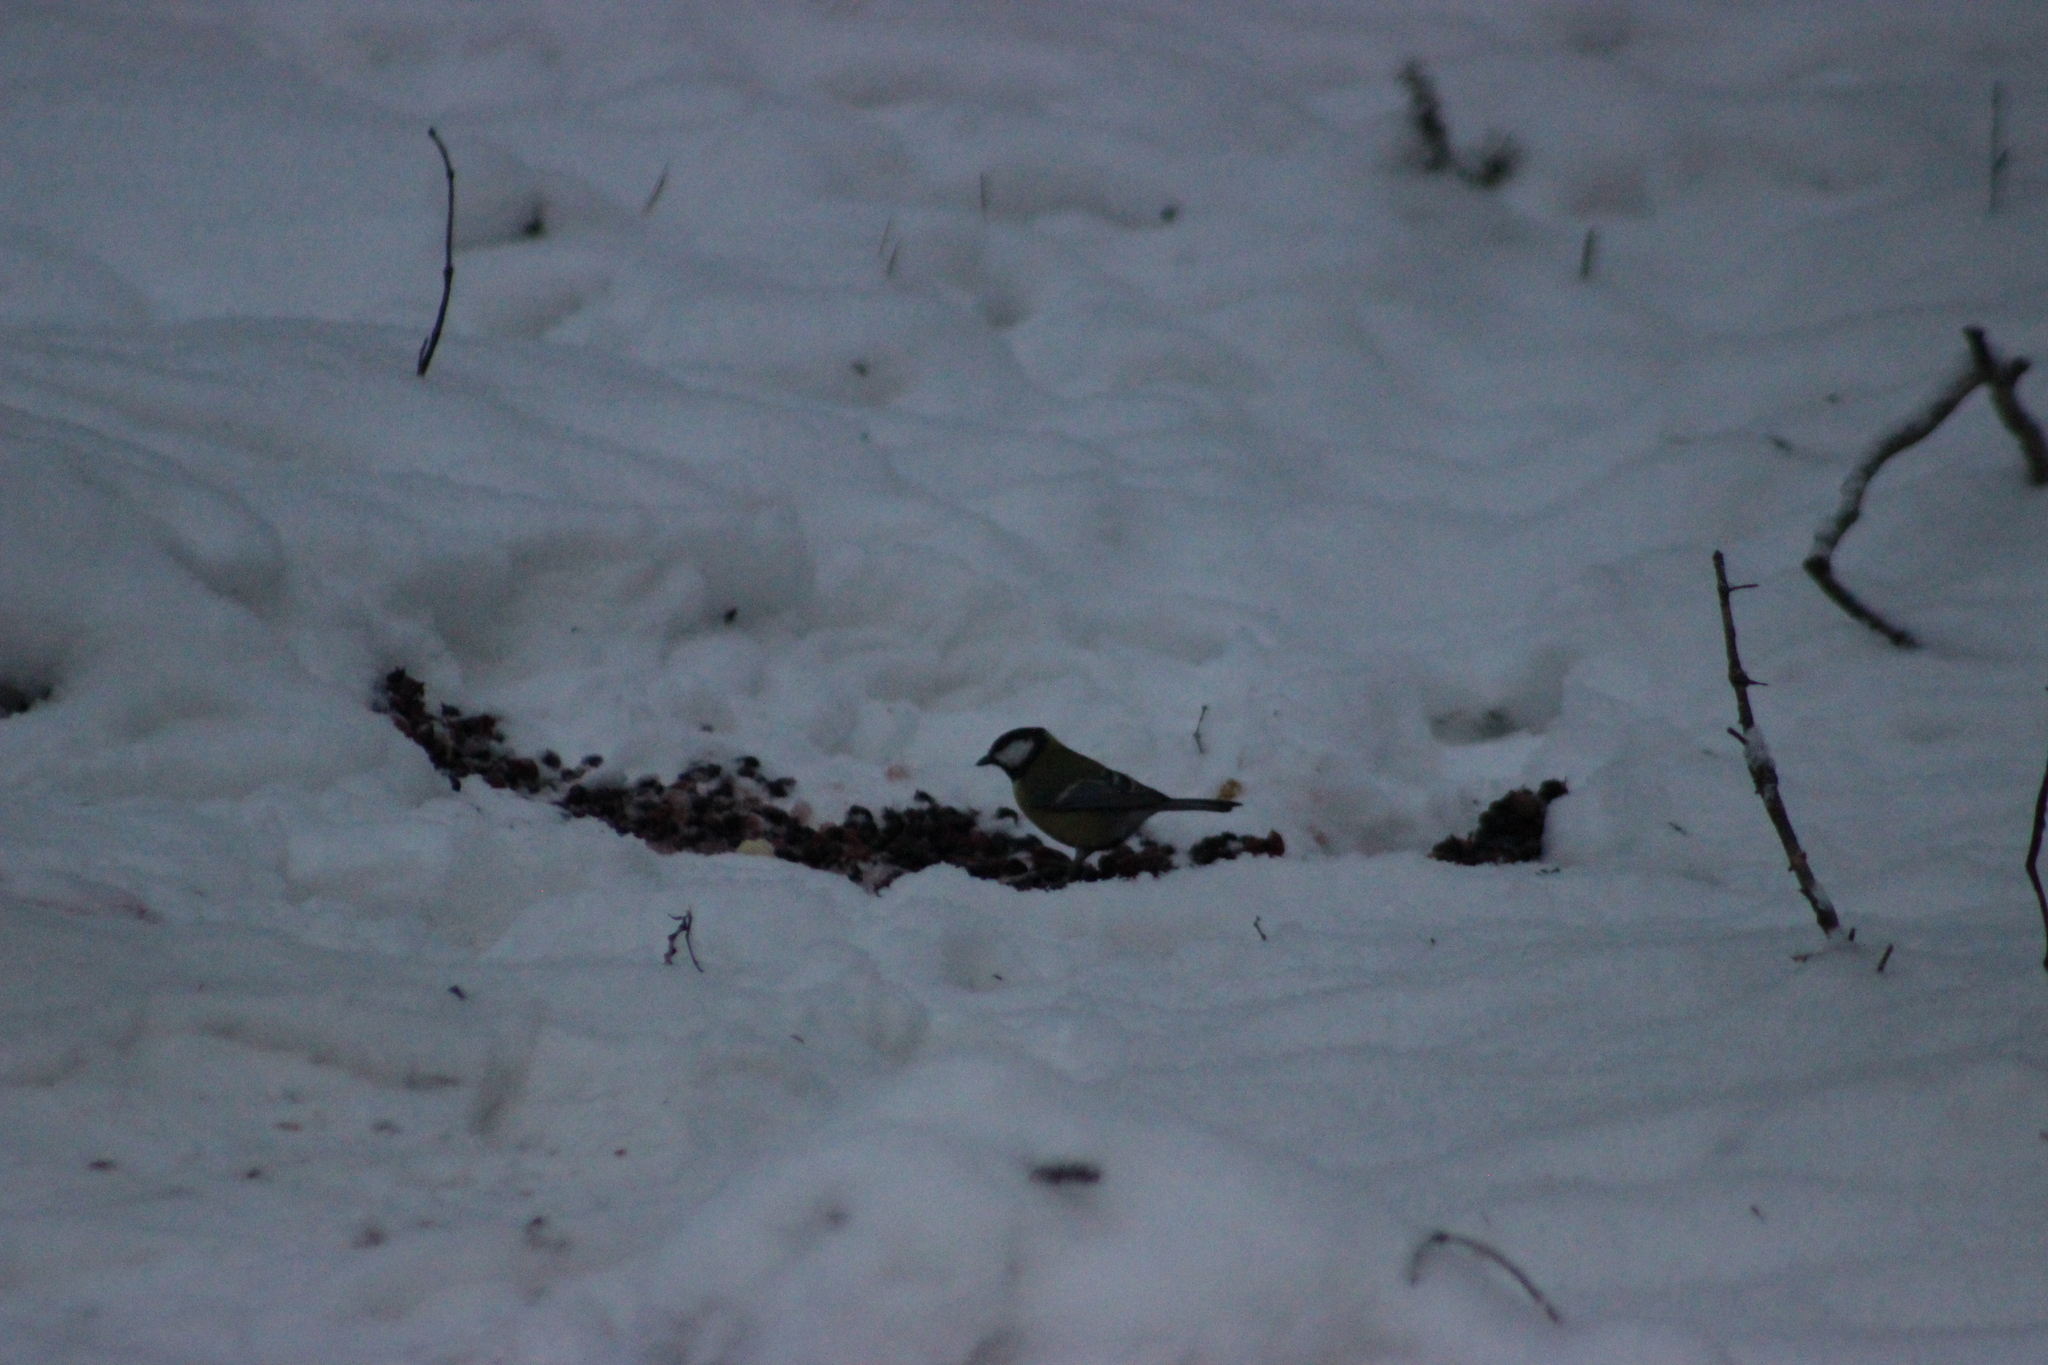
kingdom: Animalia
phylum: Chordata
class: Aves
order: Passeriformes
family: Paridae
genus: Parus
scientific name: Parus major
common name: Great tit
